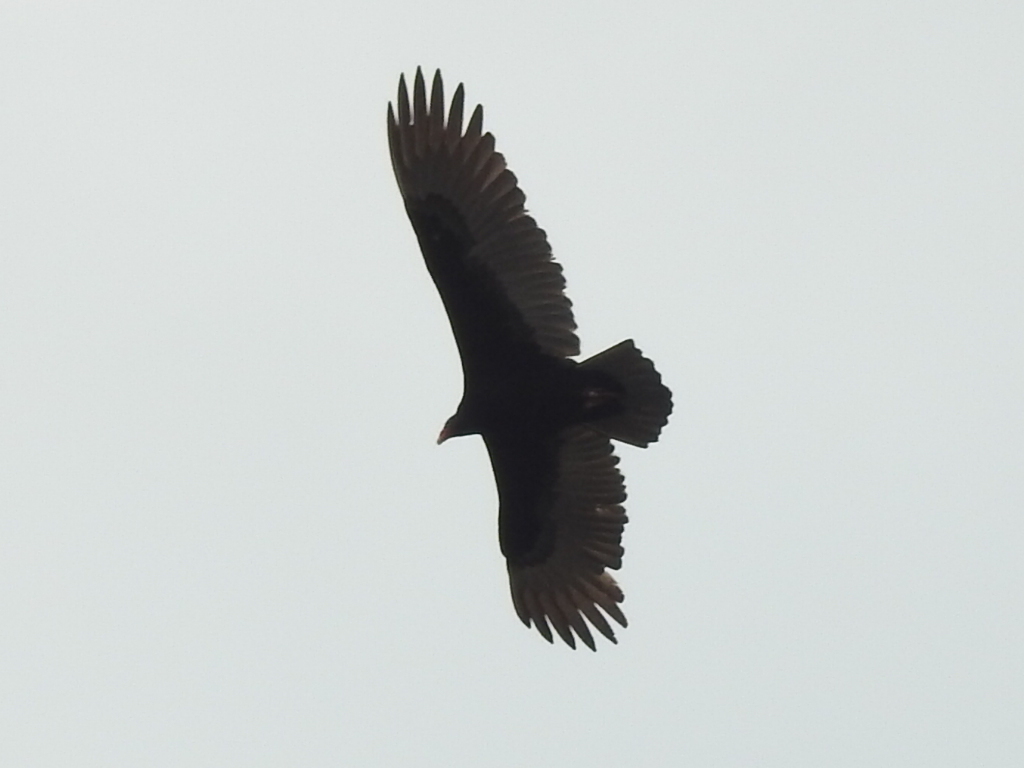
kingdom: Animalia
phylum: Chordata
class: Aves
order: Accipitriformes
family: Cathartidae
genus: Cathartes
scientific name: Cathartes aura
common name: Turkey vulture
